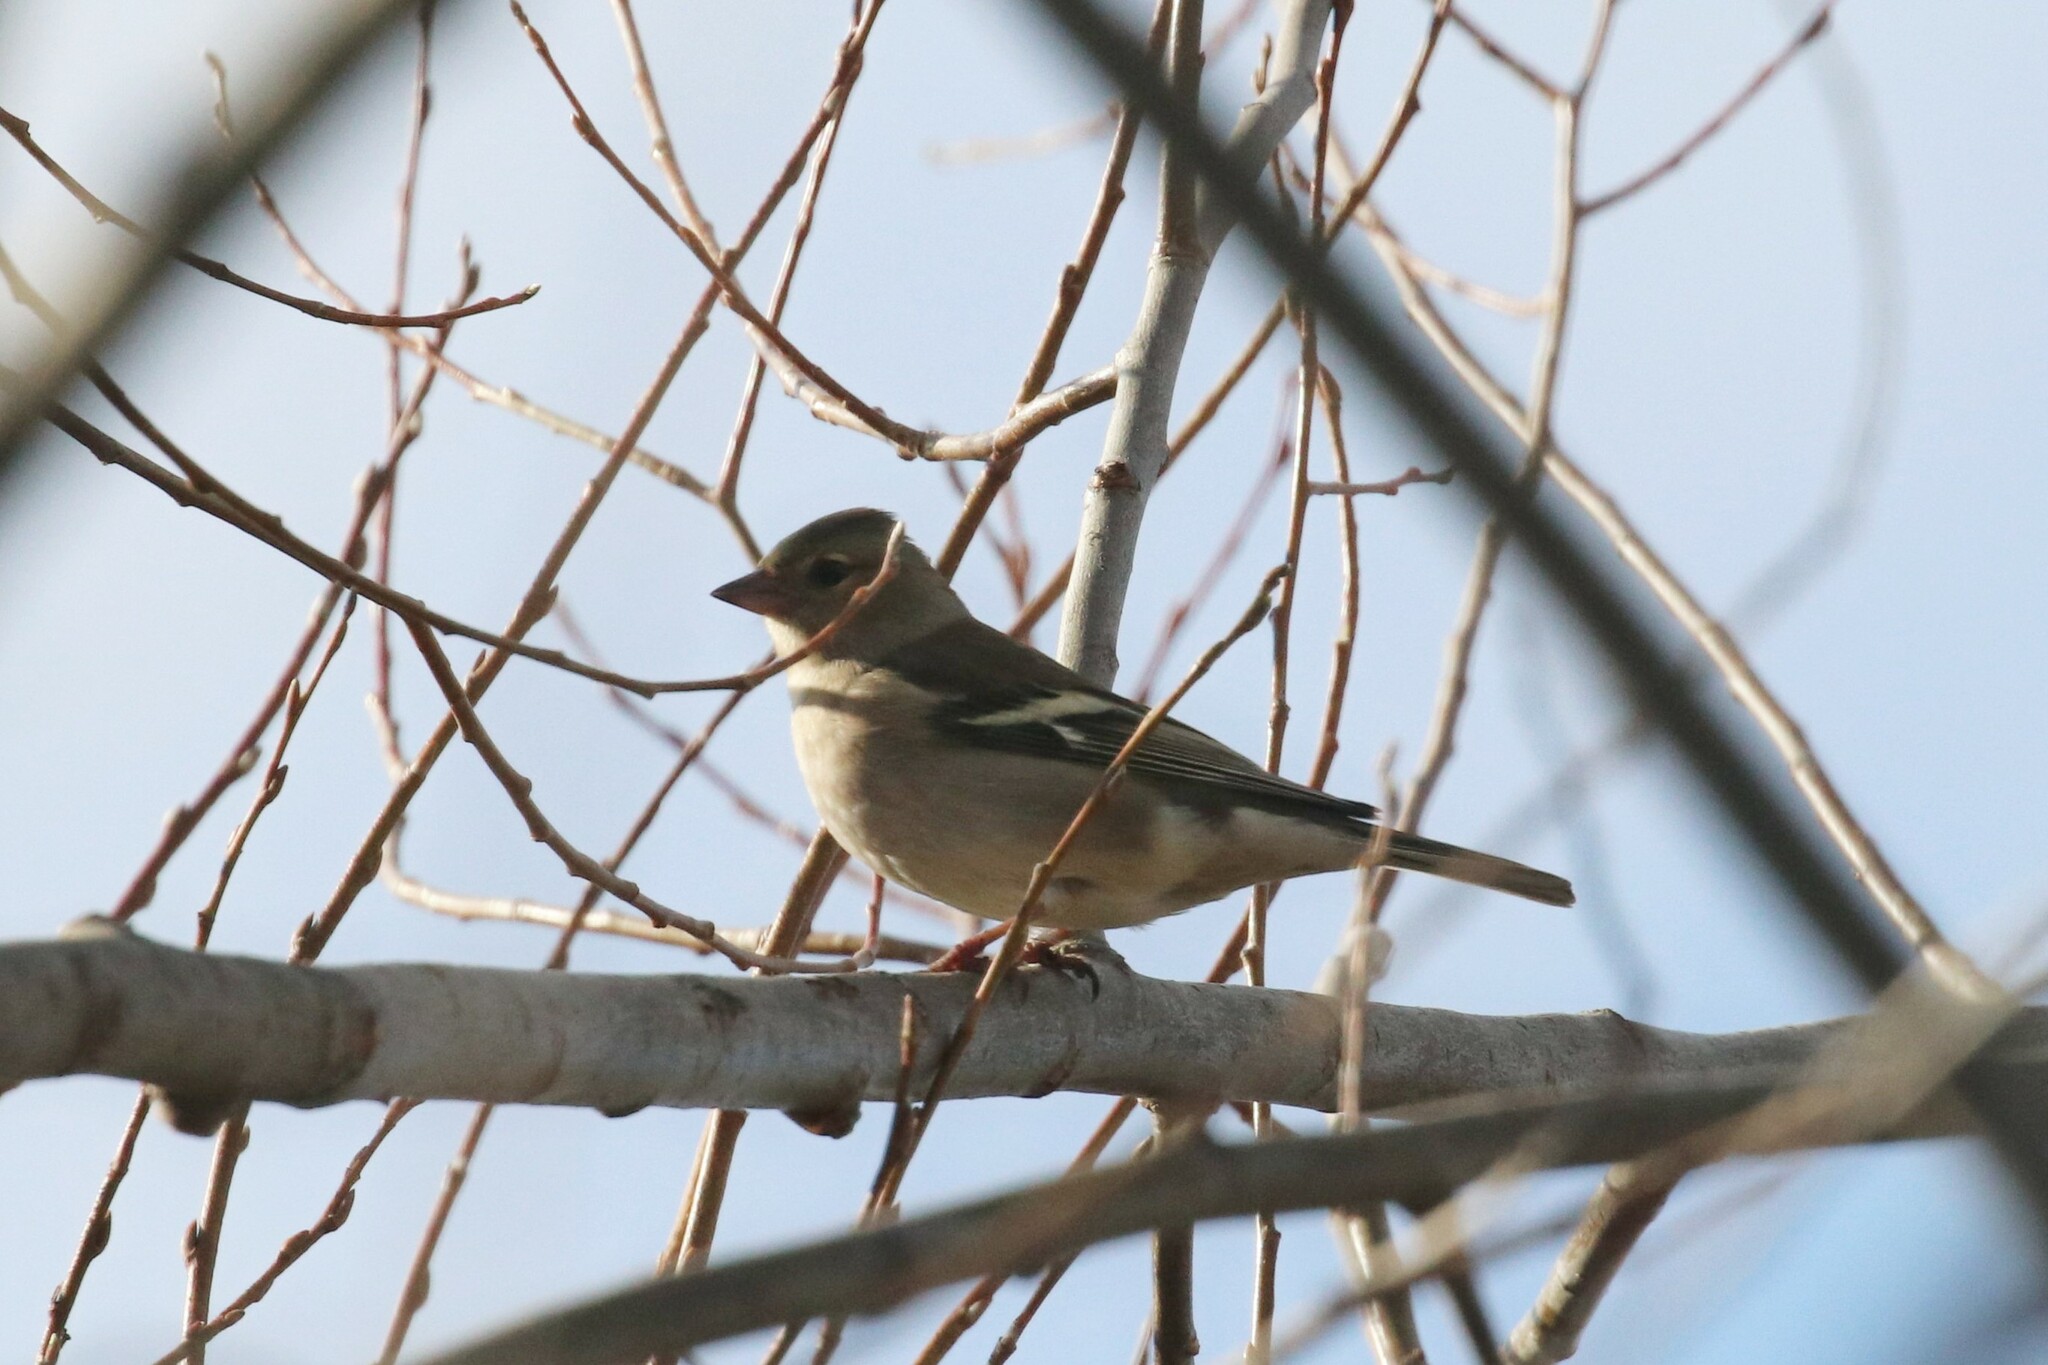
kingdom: Animalia
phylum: Chordata
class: Aves
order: Passeriformes
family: Fringillidae
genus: Fringilla
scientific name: Fringilla coelebs
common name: Common chaffinch
